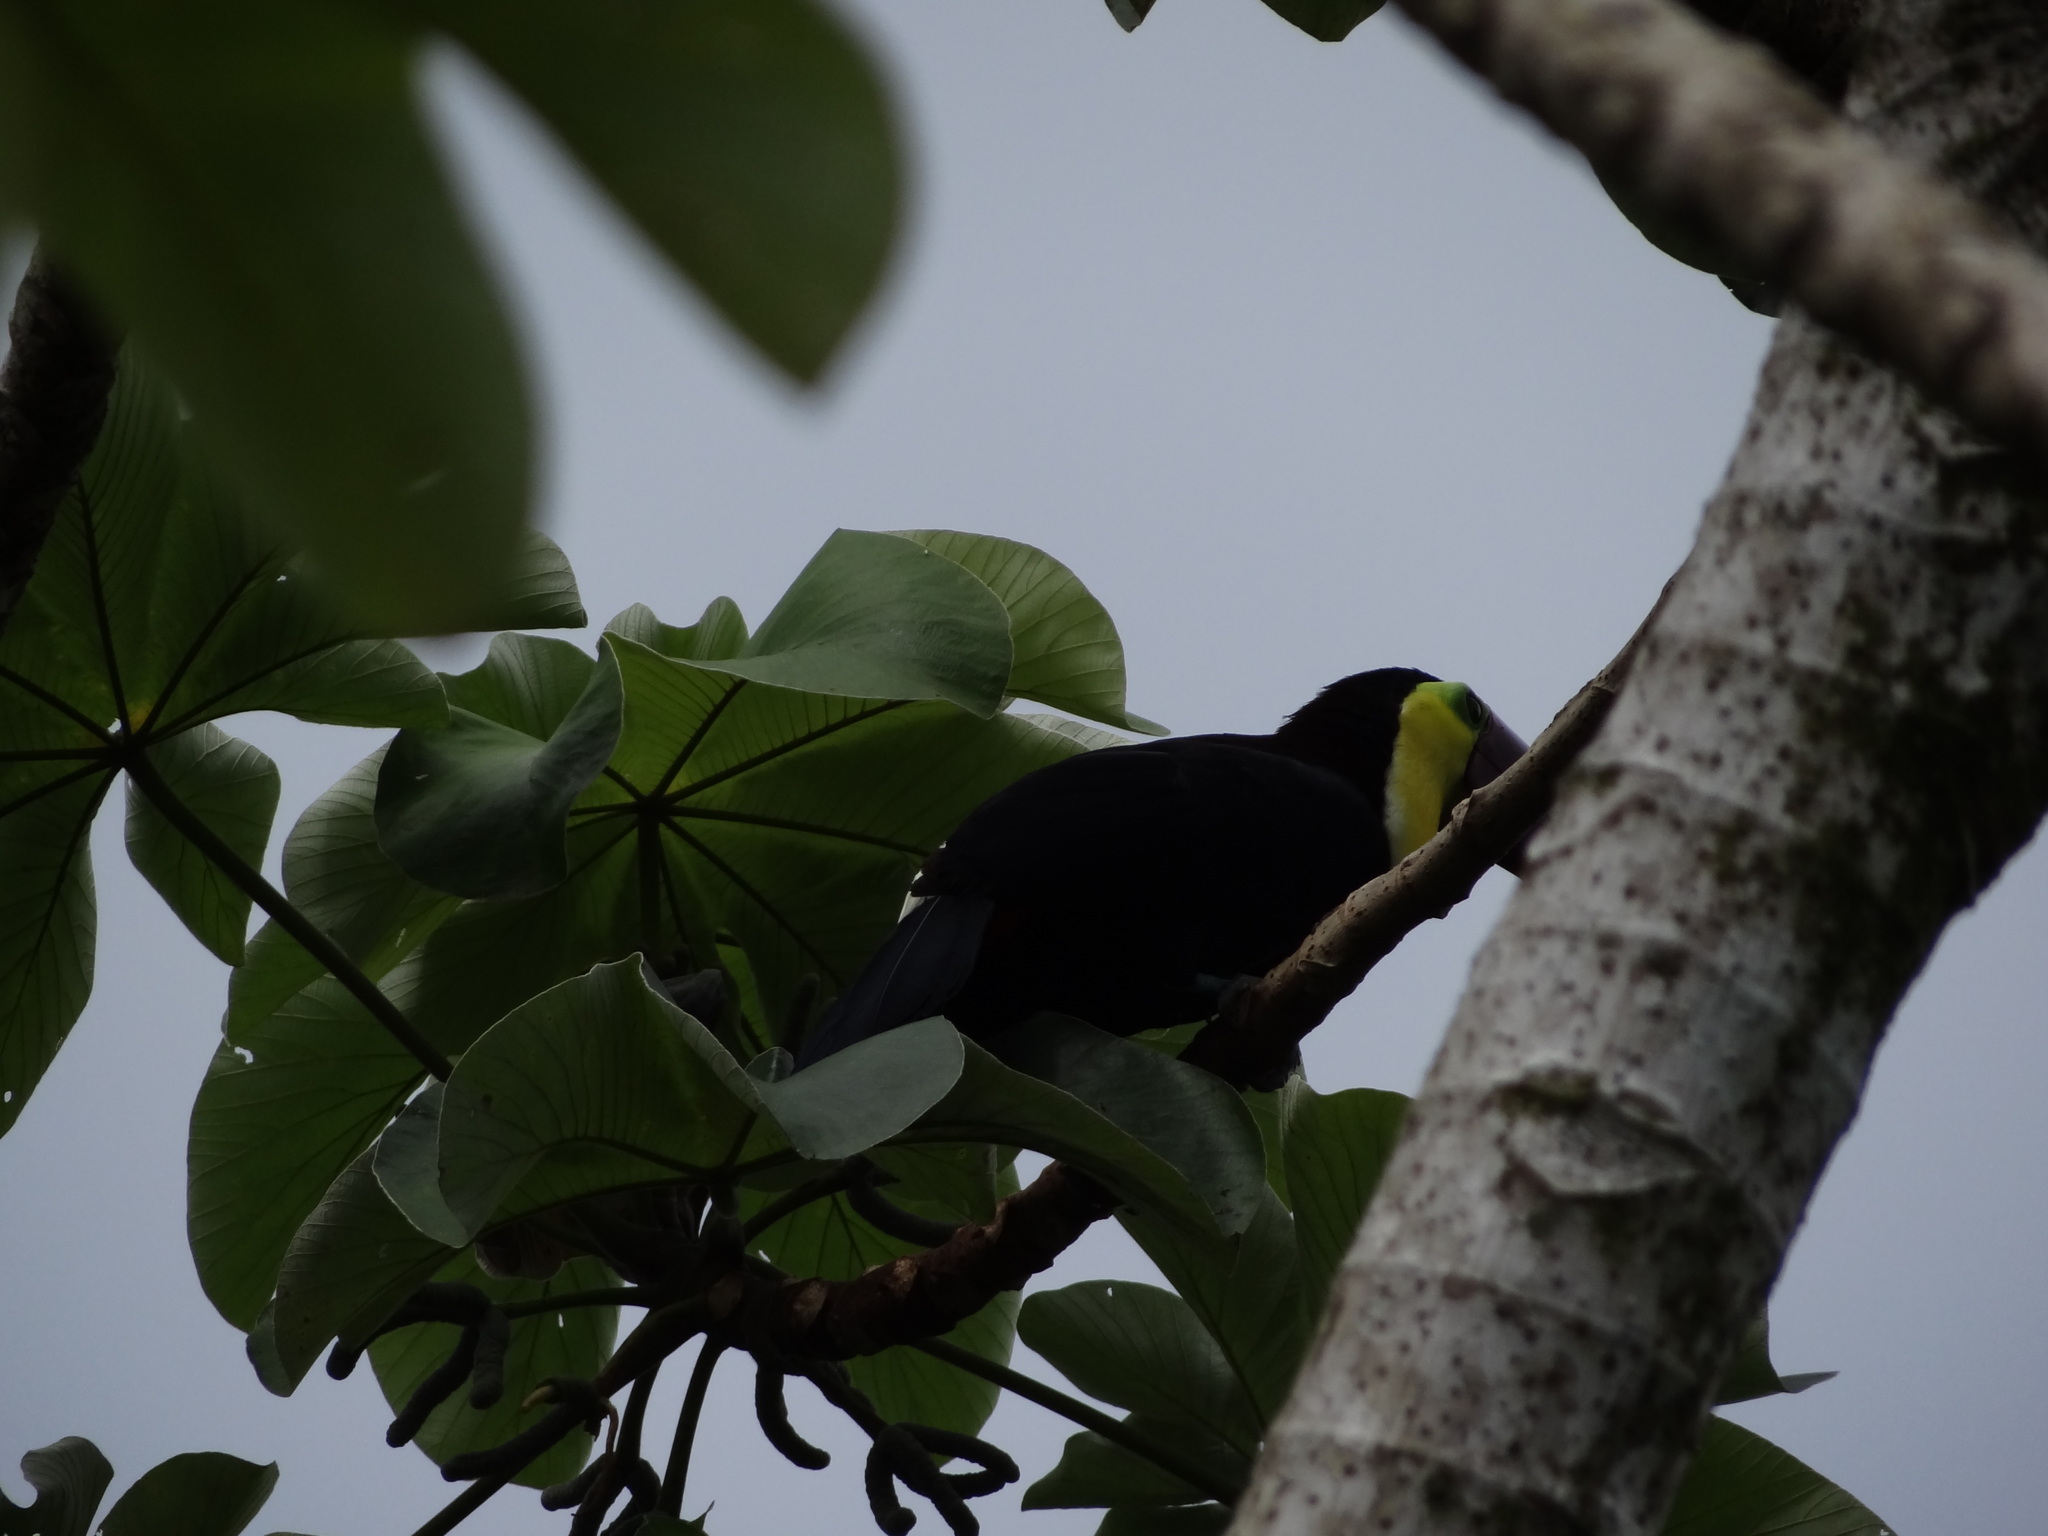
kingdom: Animalia
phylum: Chordata
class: Aves
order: Piciformes
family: Ramphastidae
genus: Ramphastos
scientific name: Ramphastos ambiguus
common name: Yellow-throated toucan
